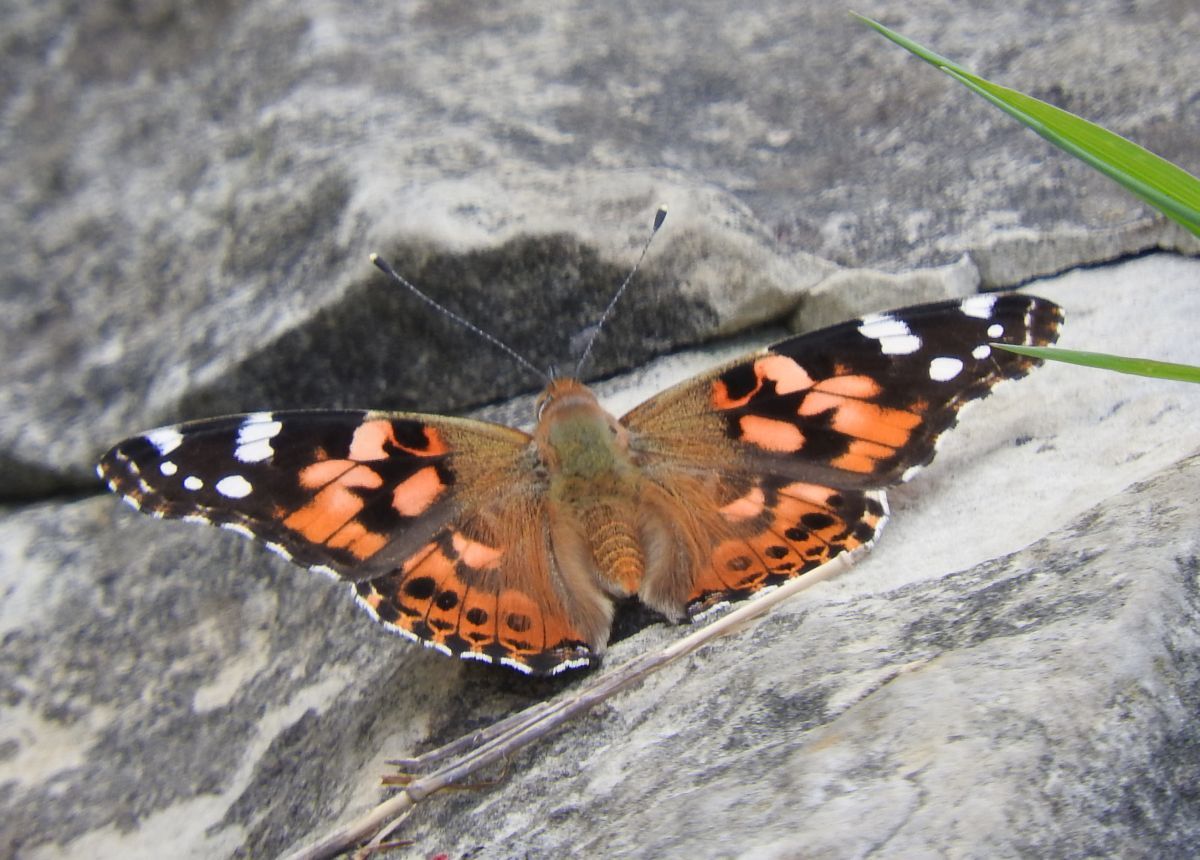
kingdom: Animalia
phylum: Arthropoda
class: Insecta
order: Lepidoptera
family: Nymphalidae
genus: Vanessa
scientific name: Vanessa cardui
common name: Painted lady
